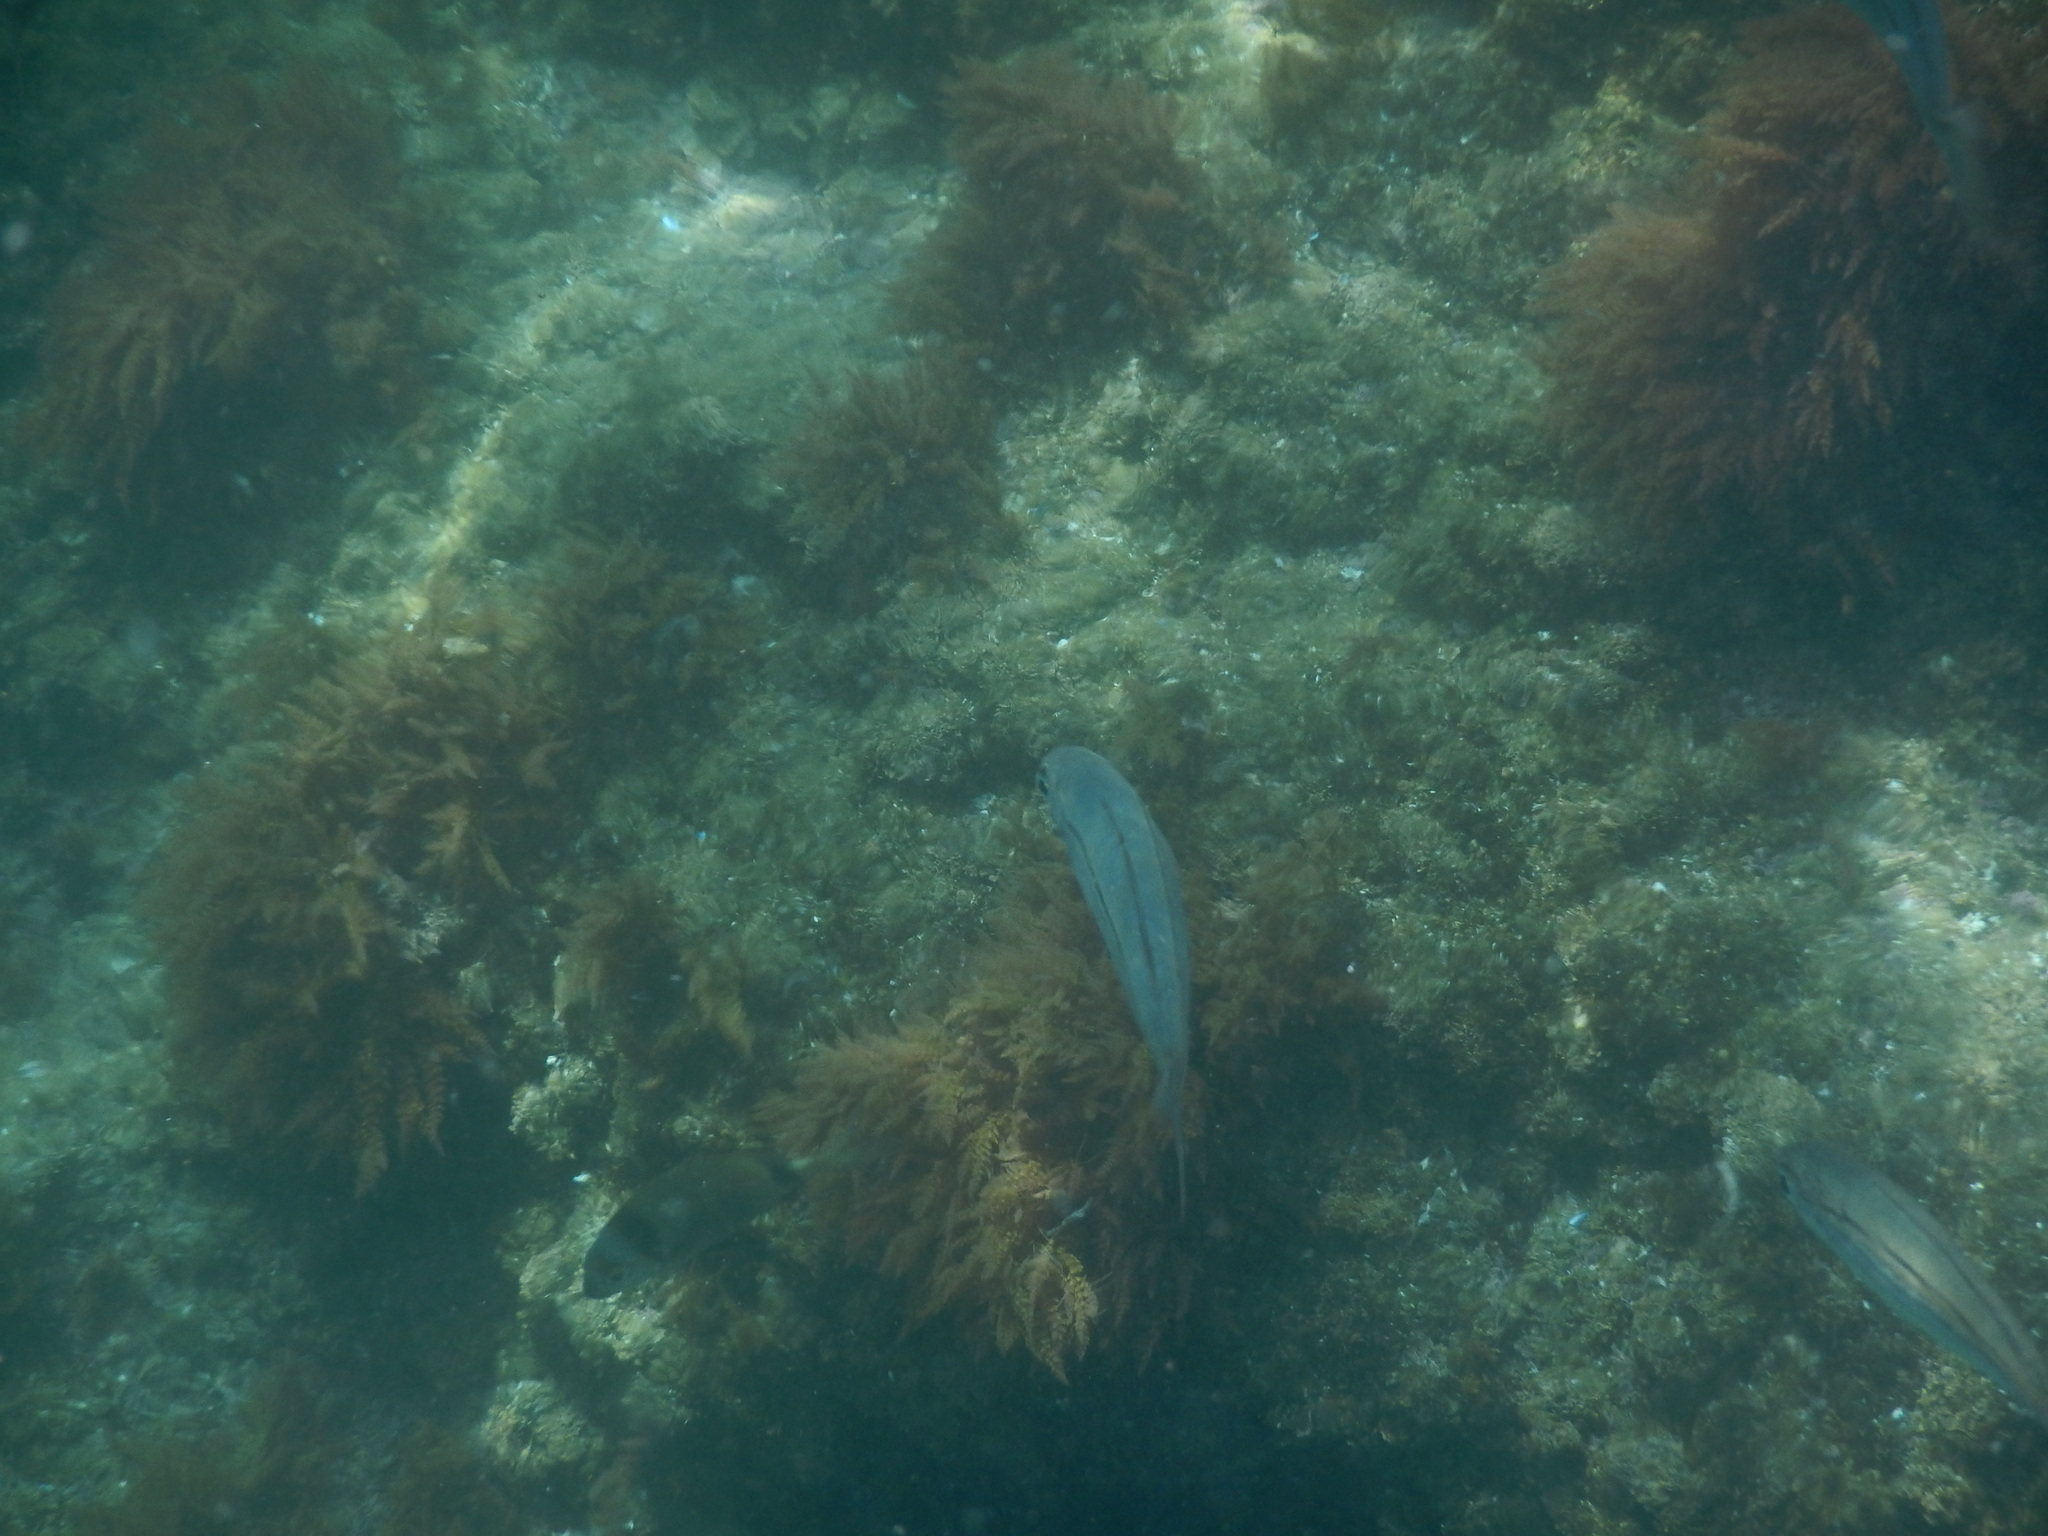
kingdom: Animalia
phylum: Chordata
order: Perciformes
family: Sparidae
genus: Boops
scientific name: Boops boops
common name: Bogue
